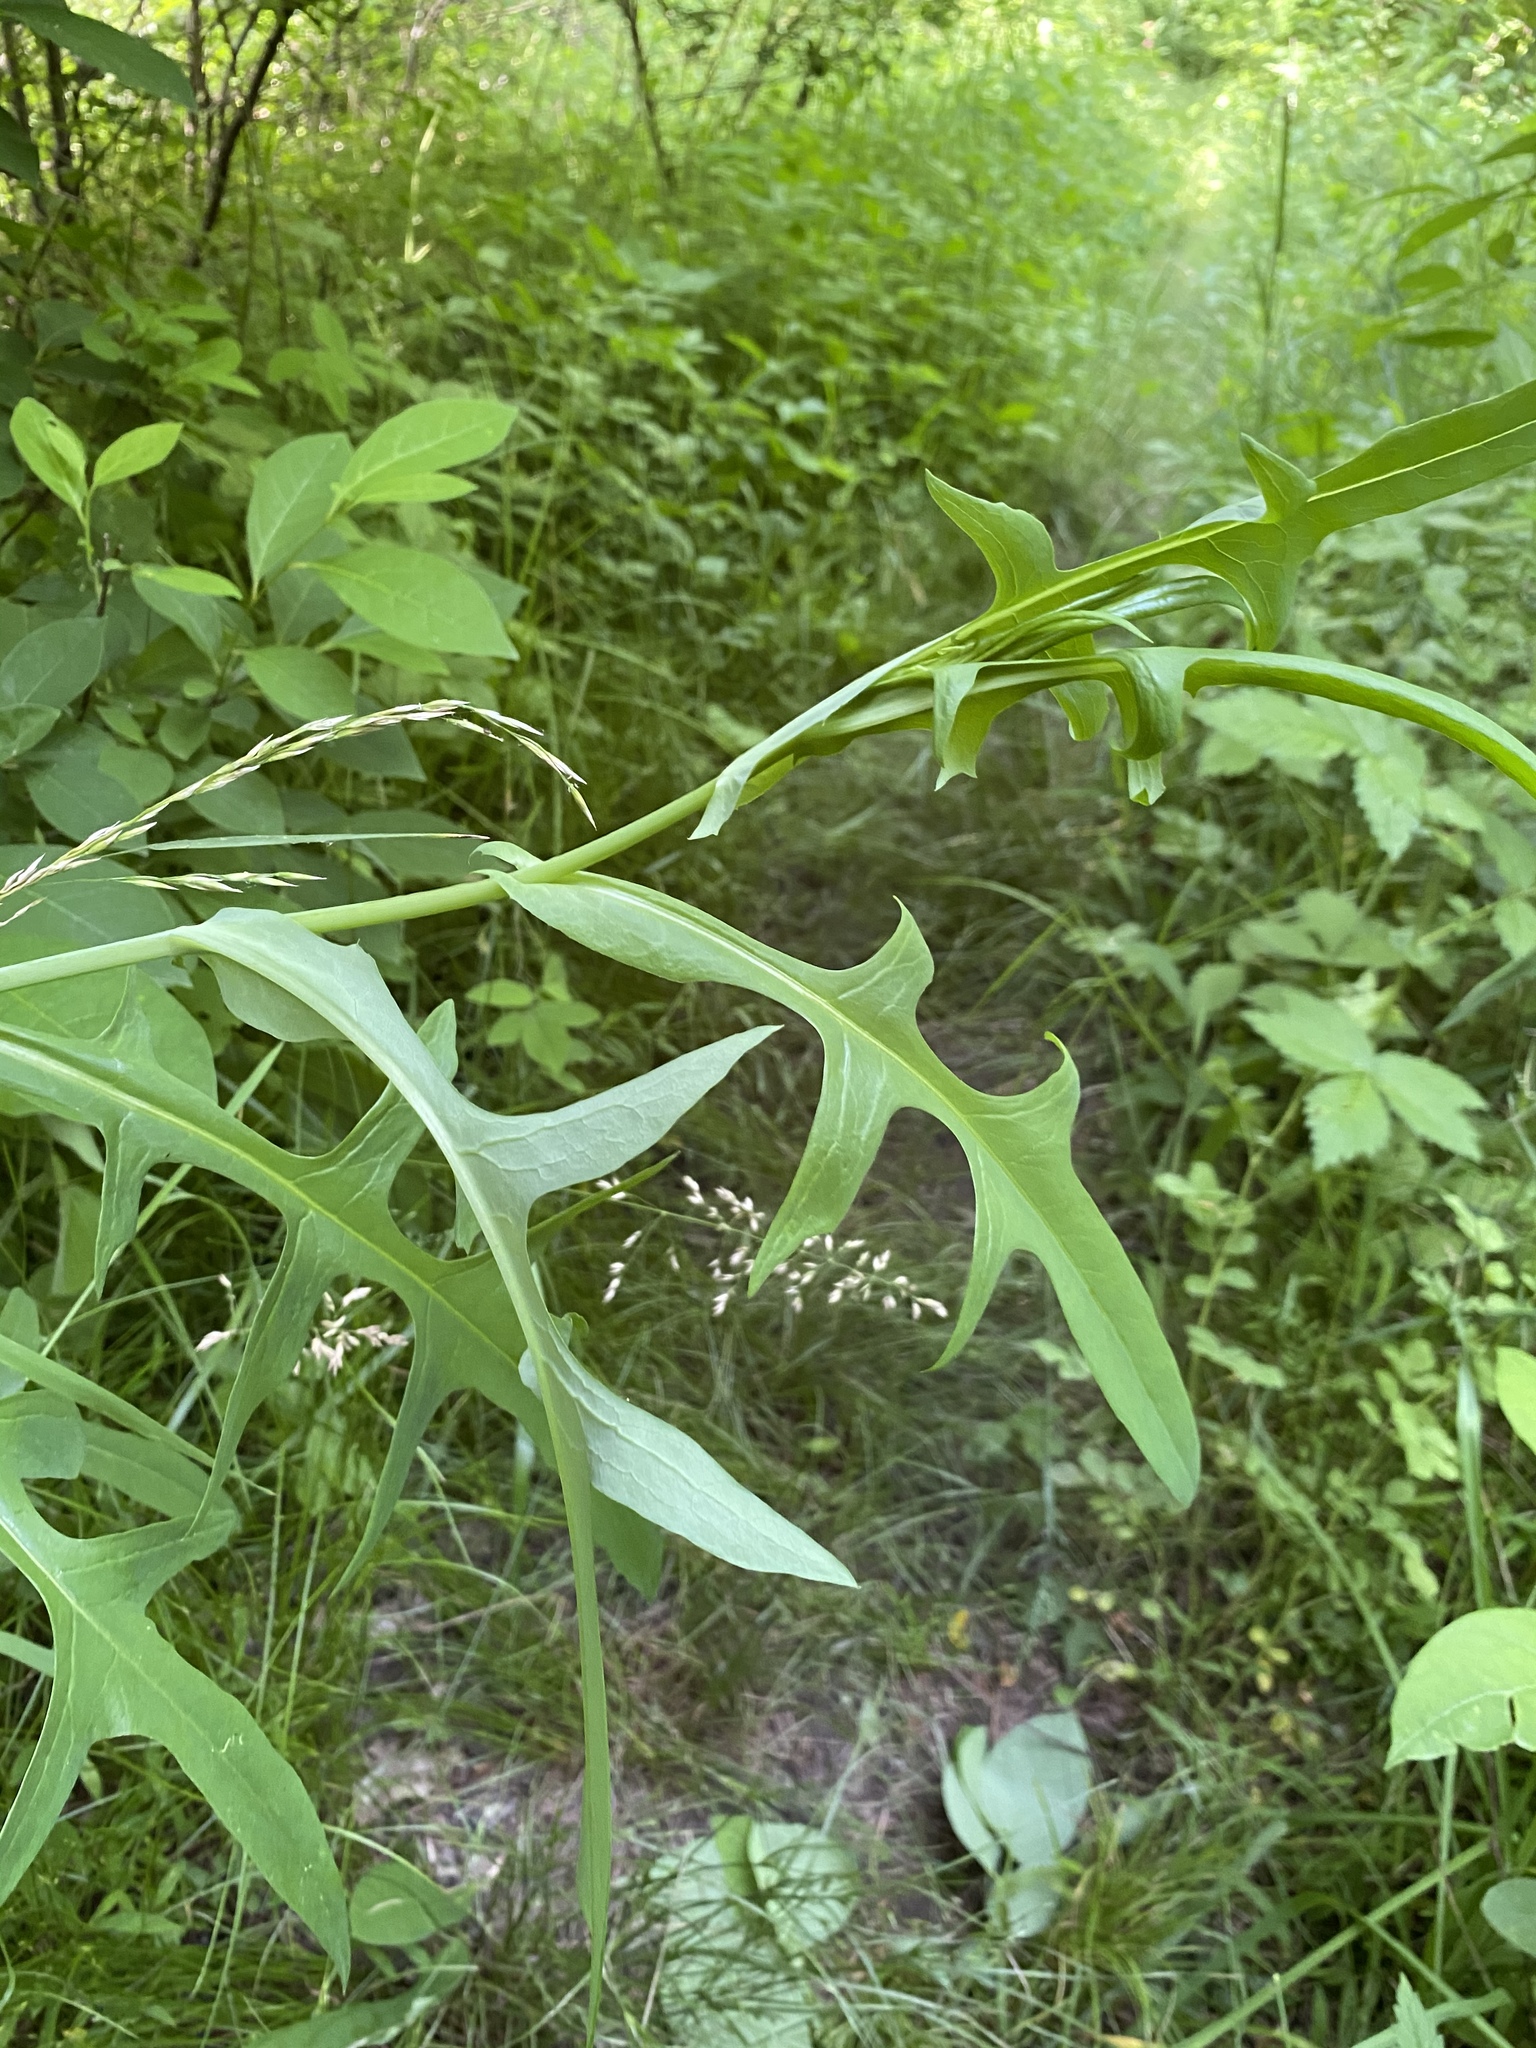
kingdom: Plantae
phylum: Tracheophyta
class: Magnoliopsida
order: Asterales
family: Asteraceae
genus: Lactuca
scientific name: Lactuca canadensis
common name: Canada lettuce
